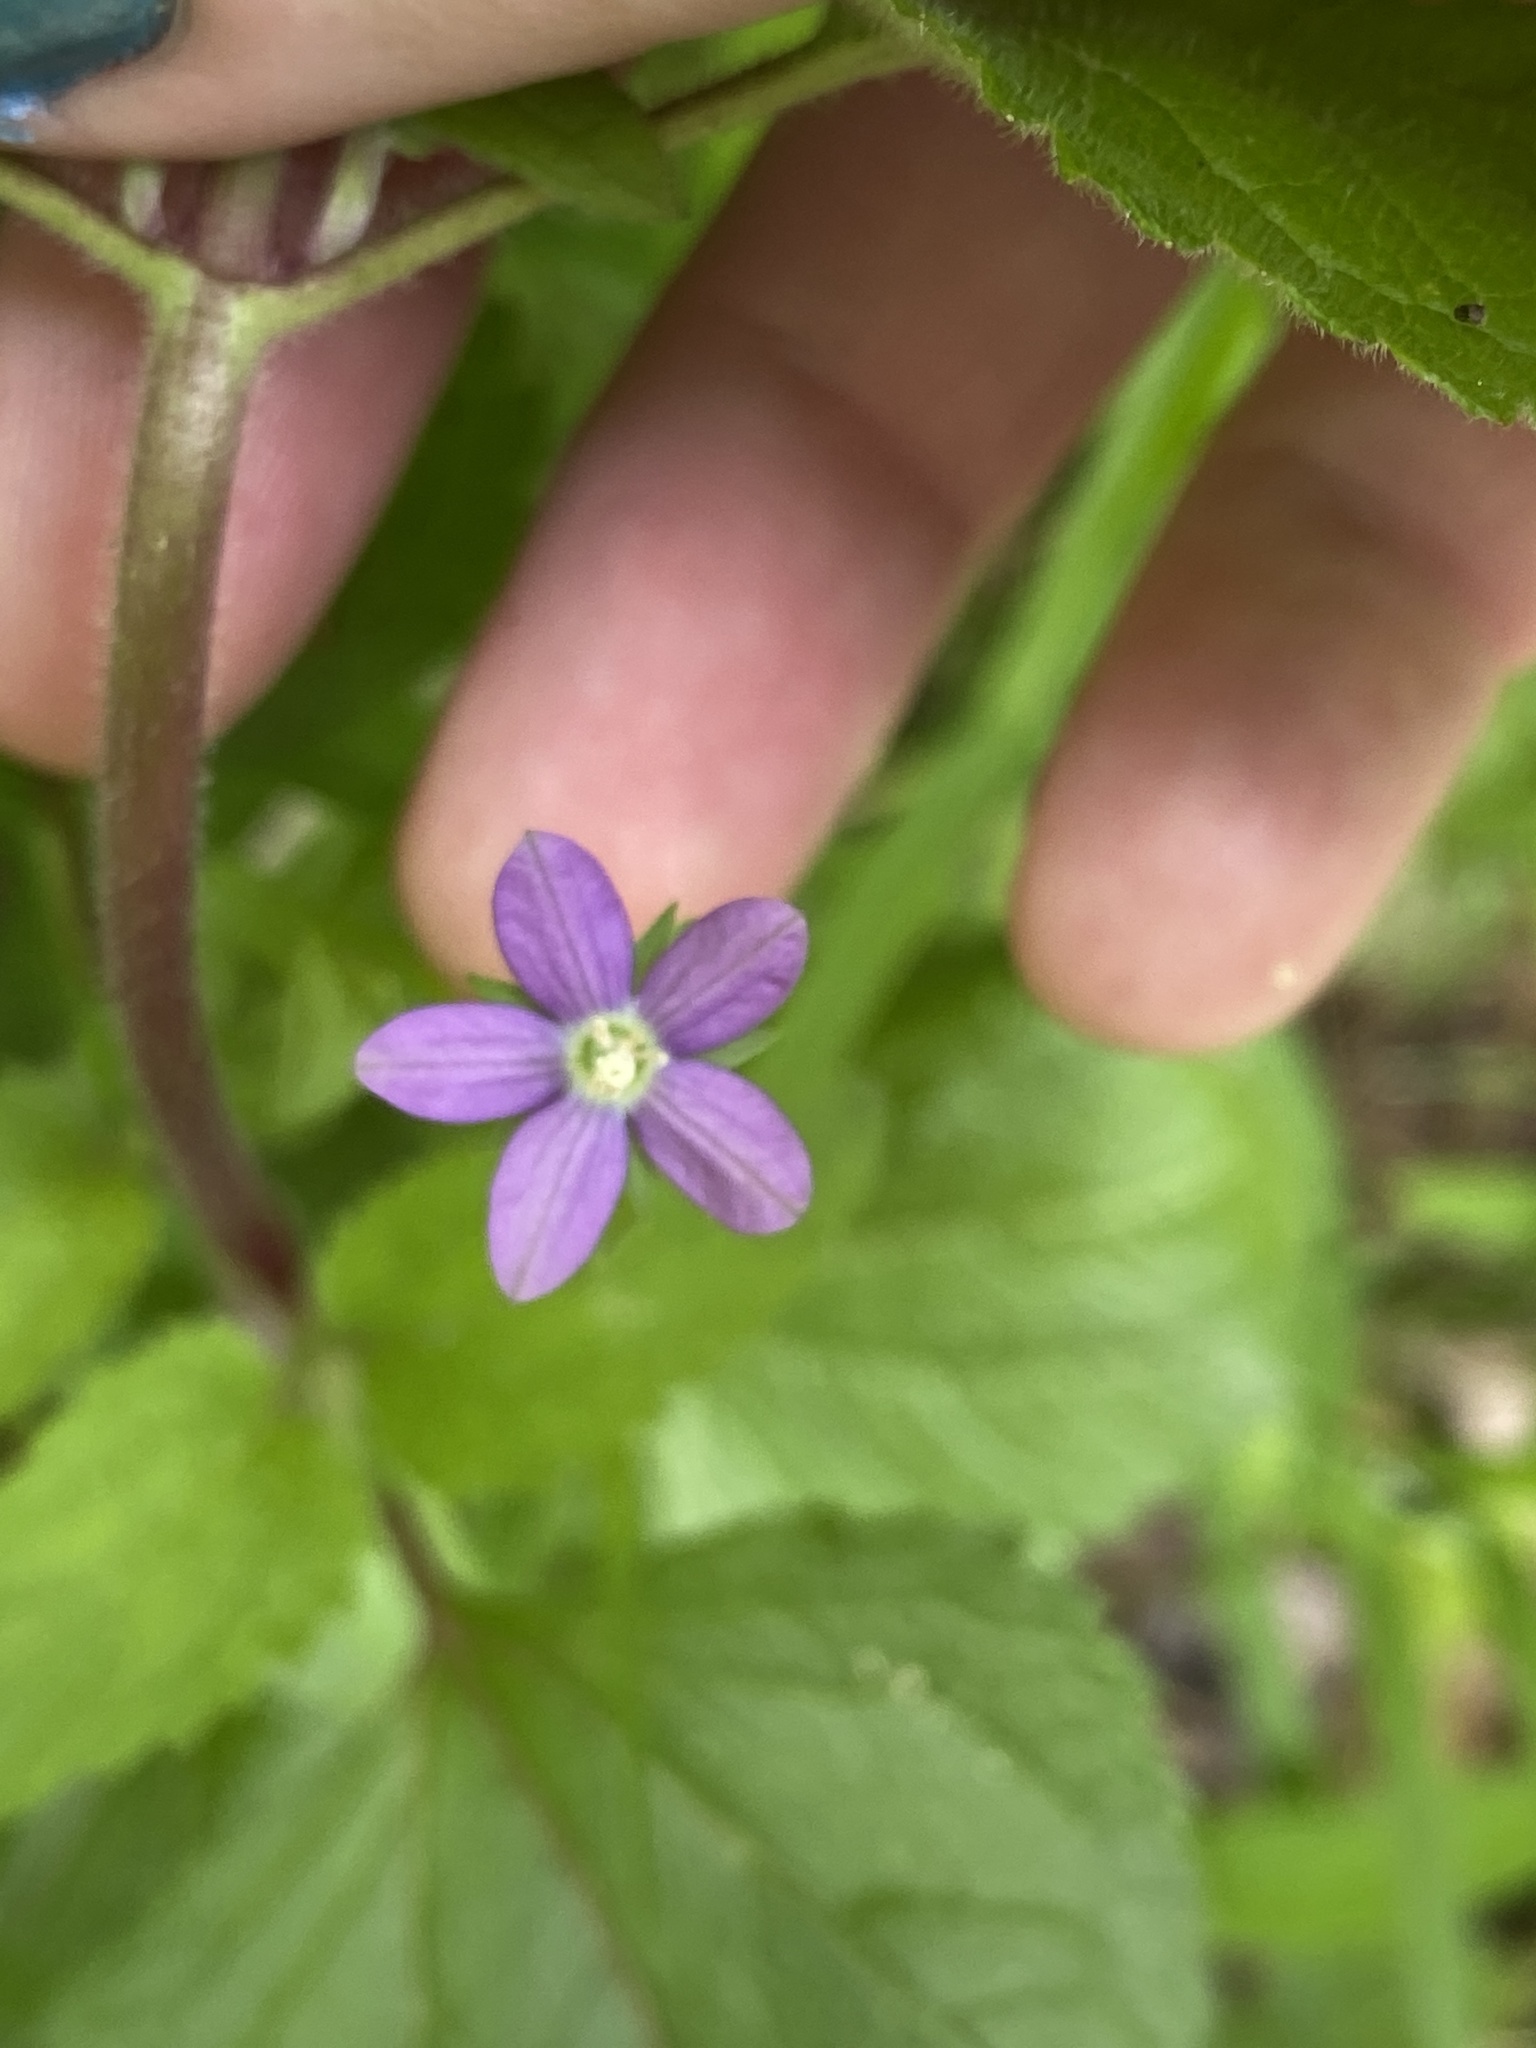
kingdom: Plantae
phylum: Tracheophyta
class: Magnoliopsida
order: Asterales
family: Campanulaceae
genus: Triodanis
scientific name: Triodanis biflora
